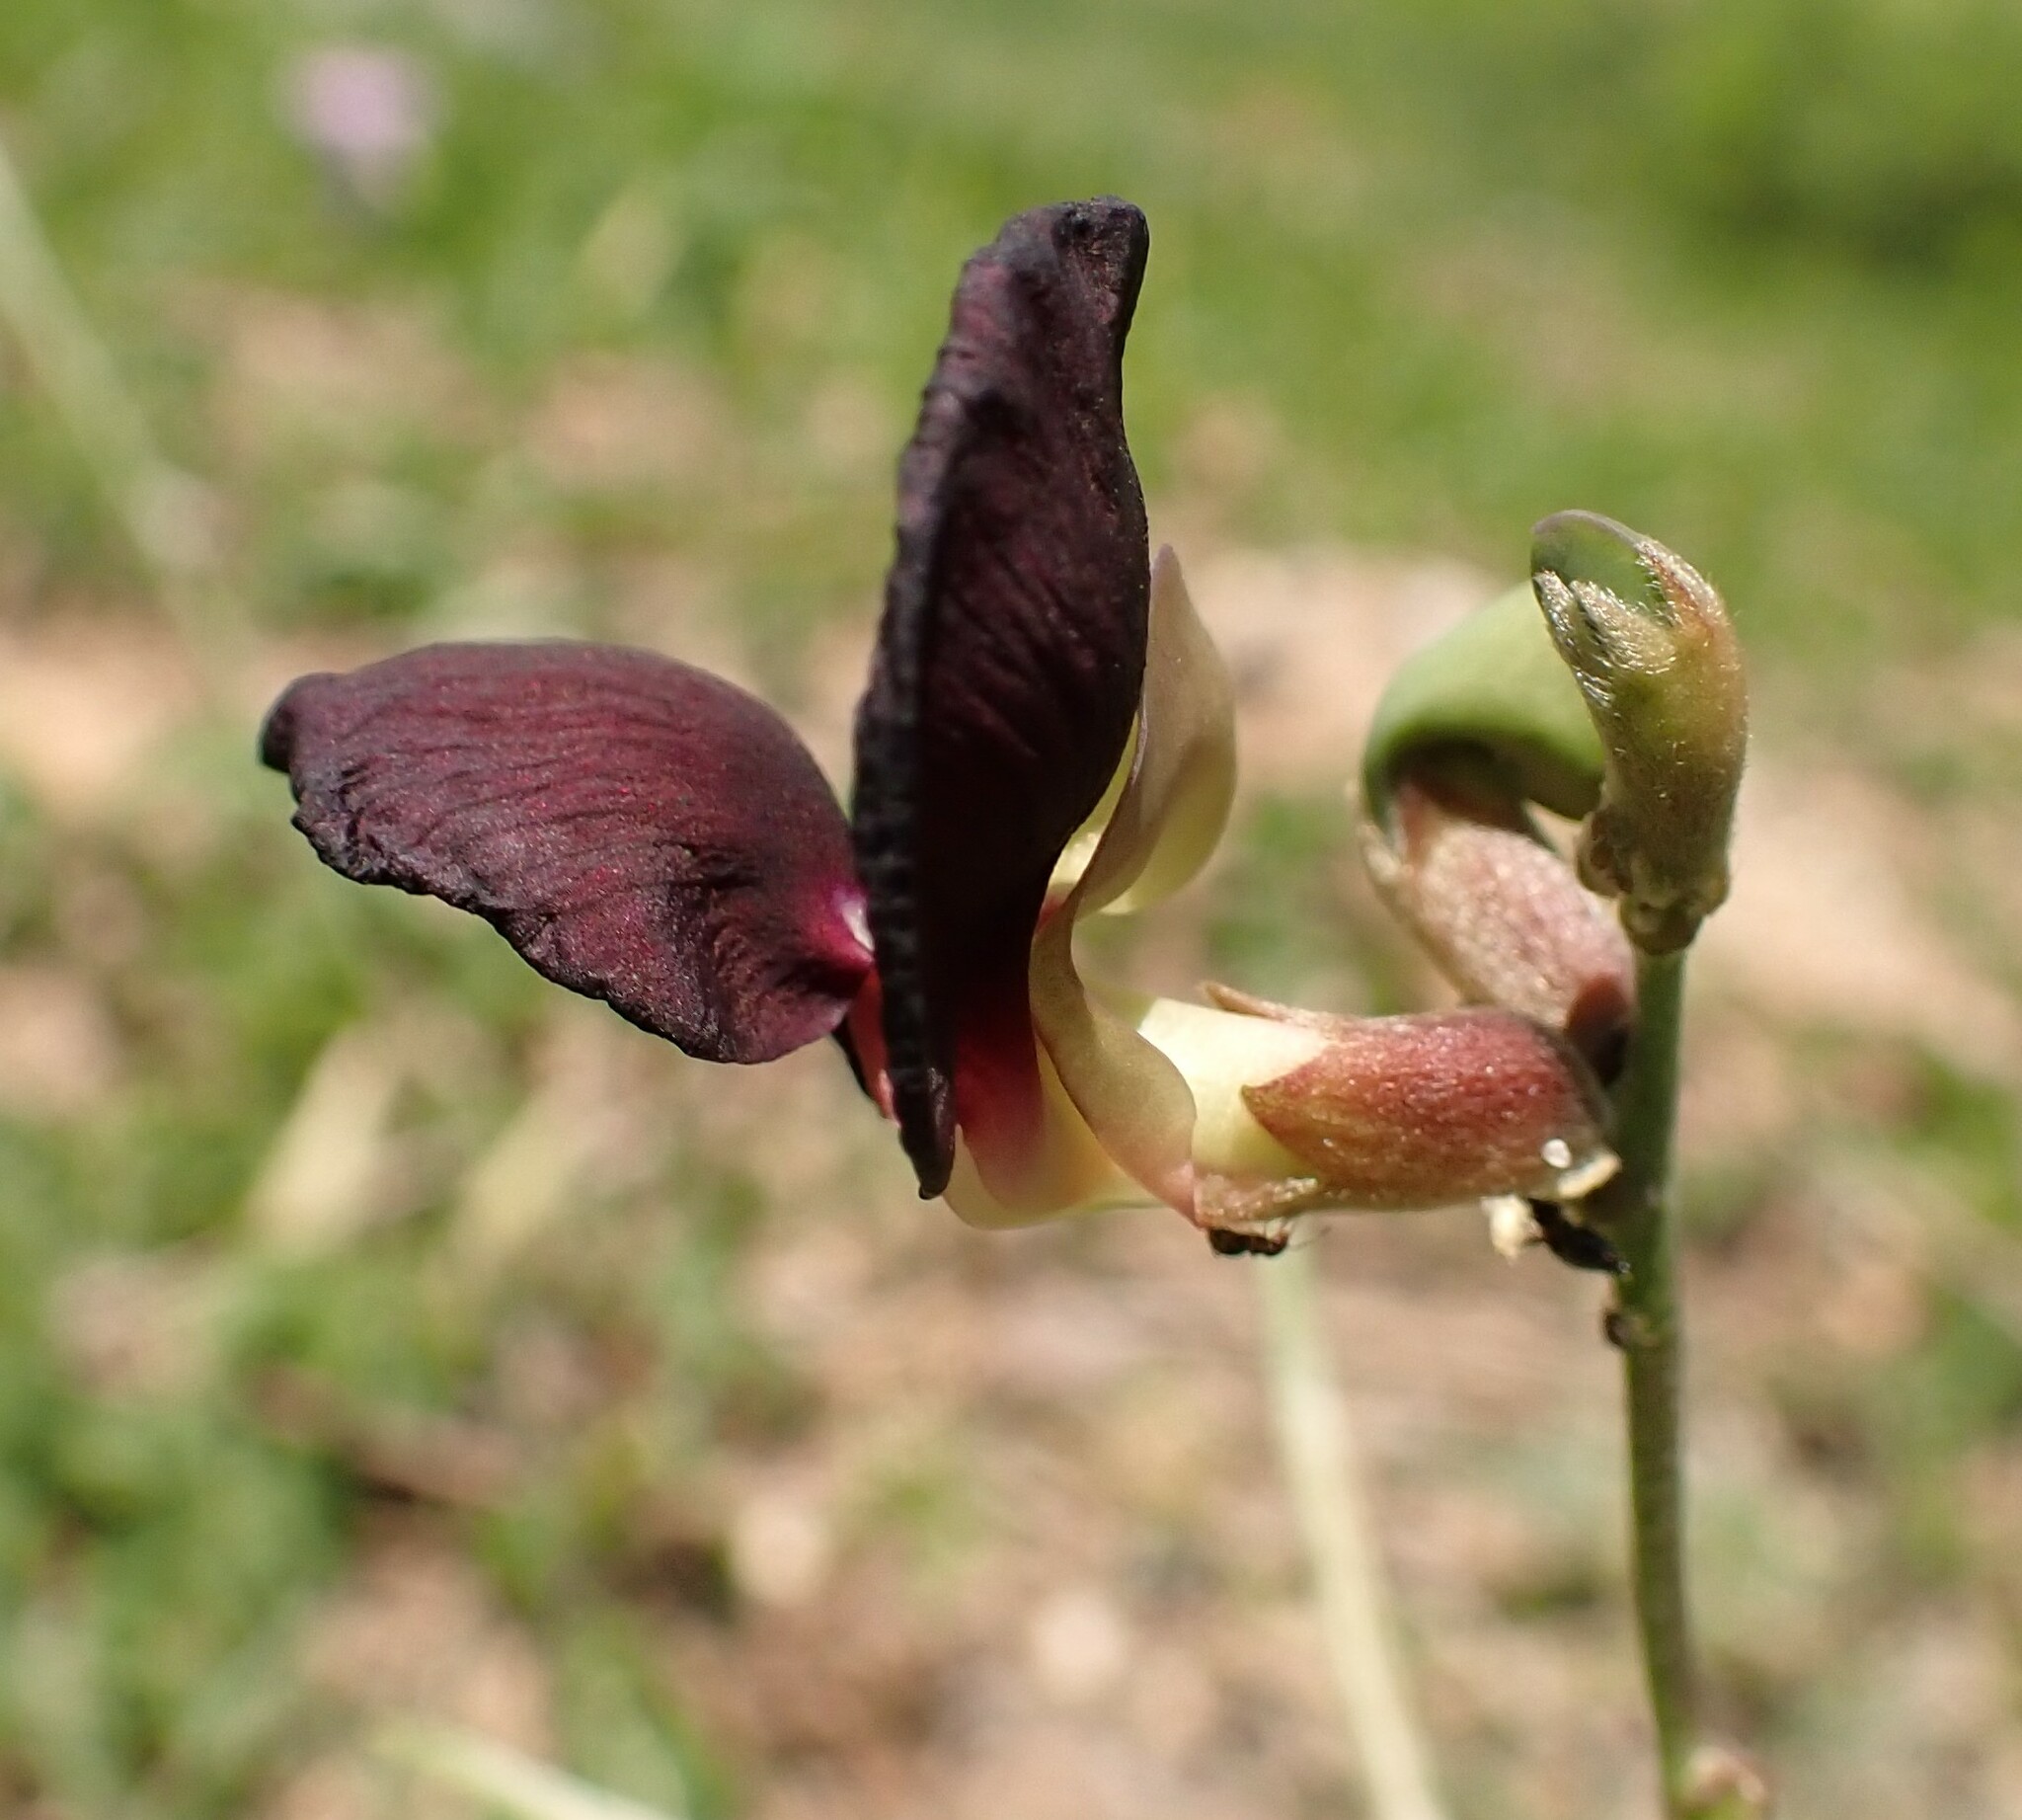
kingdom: Plantae
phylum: Tracheophyta
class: Magnoliopsida
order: Fabales
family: Fabaceae
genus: Macroptilium
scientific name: Macroptilium atropurpureum
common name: Purple bushbean
